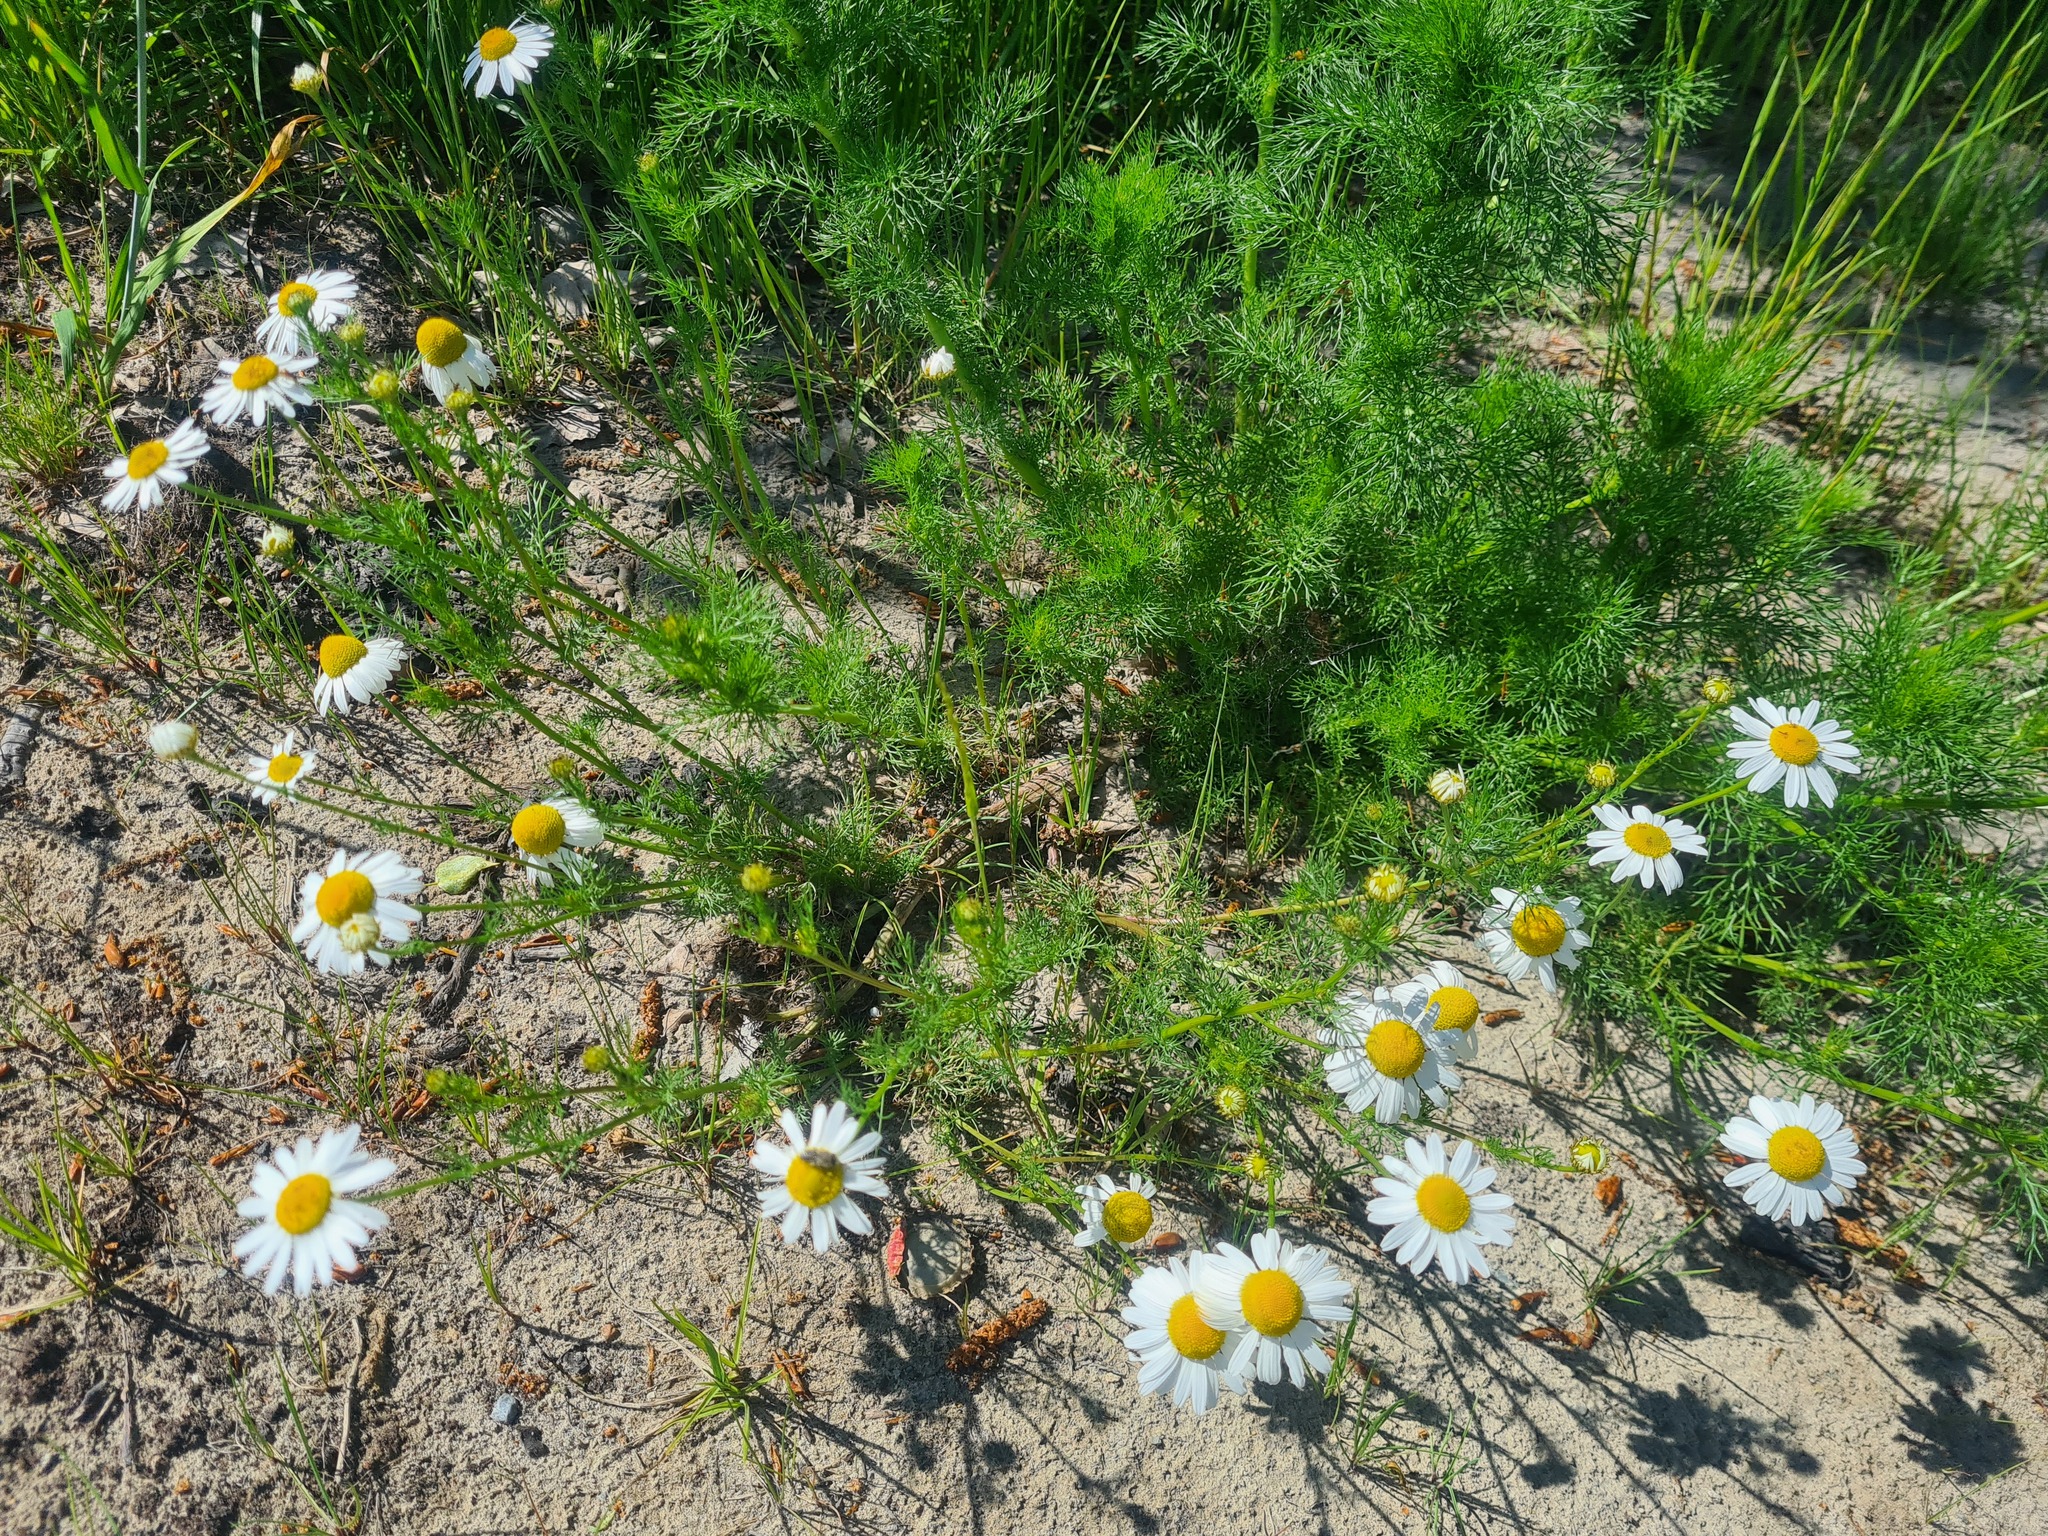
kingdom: Plantae
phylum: Tracheophyta
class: Magnoliopsida
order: Asterales
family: Asteraceae
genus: Tripleurospermum
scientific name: Tripleurospermum inodorum
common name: Scentless mayweed
